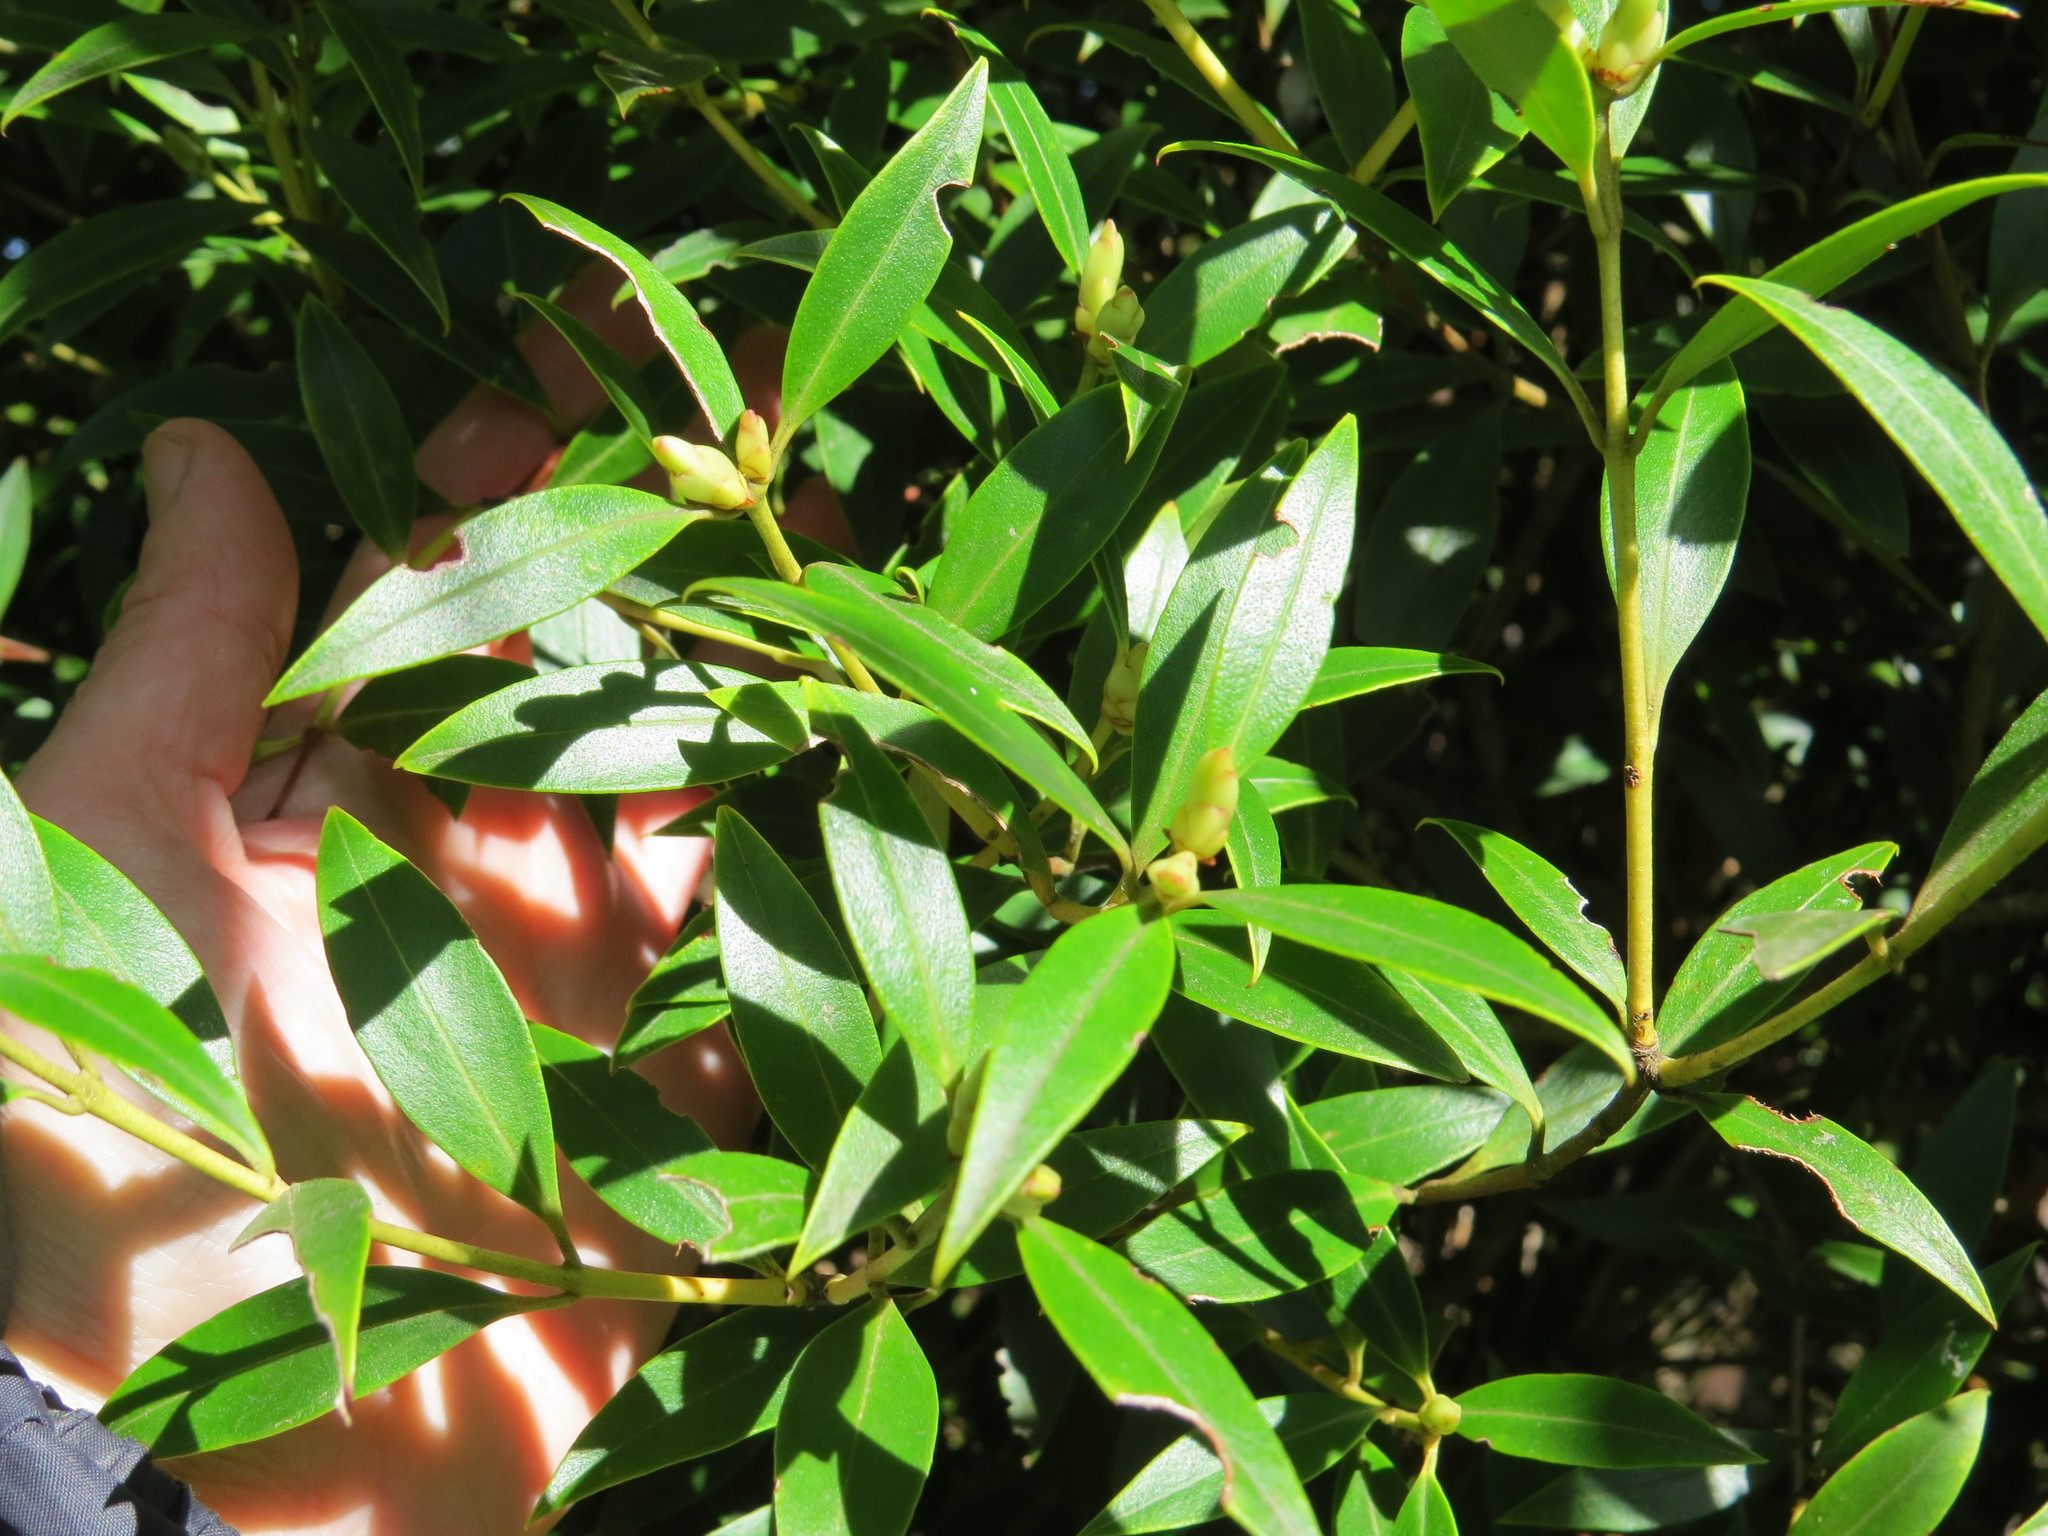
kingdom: Plantae
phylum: Tracheophyta
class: Magnoliopsida
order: Myrtales
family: Myrtaceae
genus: Metrosideros
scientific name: Metrosideros umbellata
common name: Southern rata
